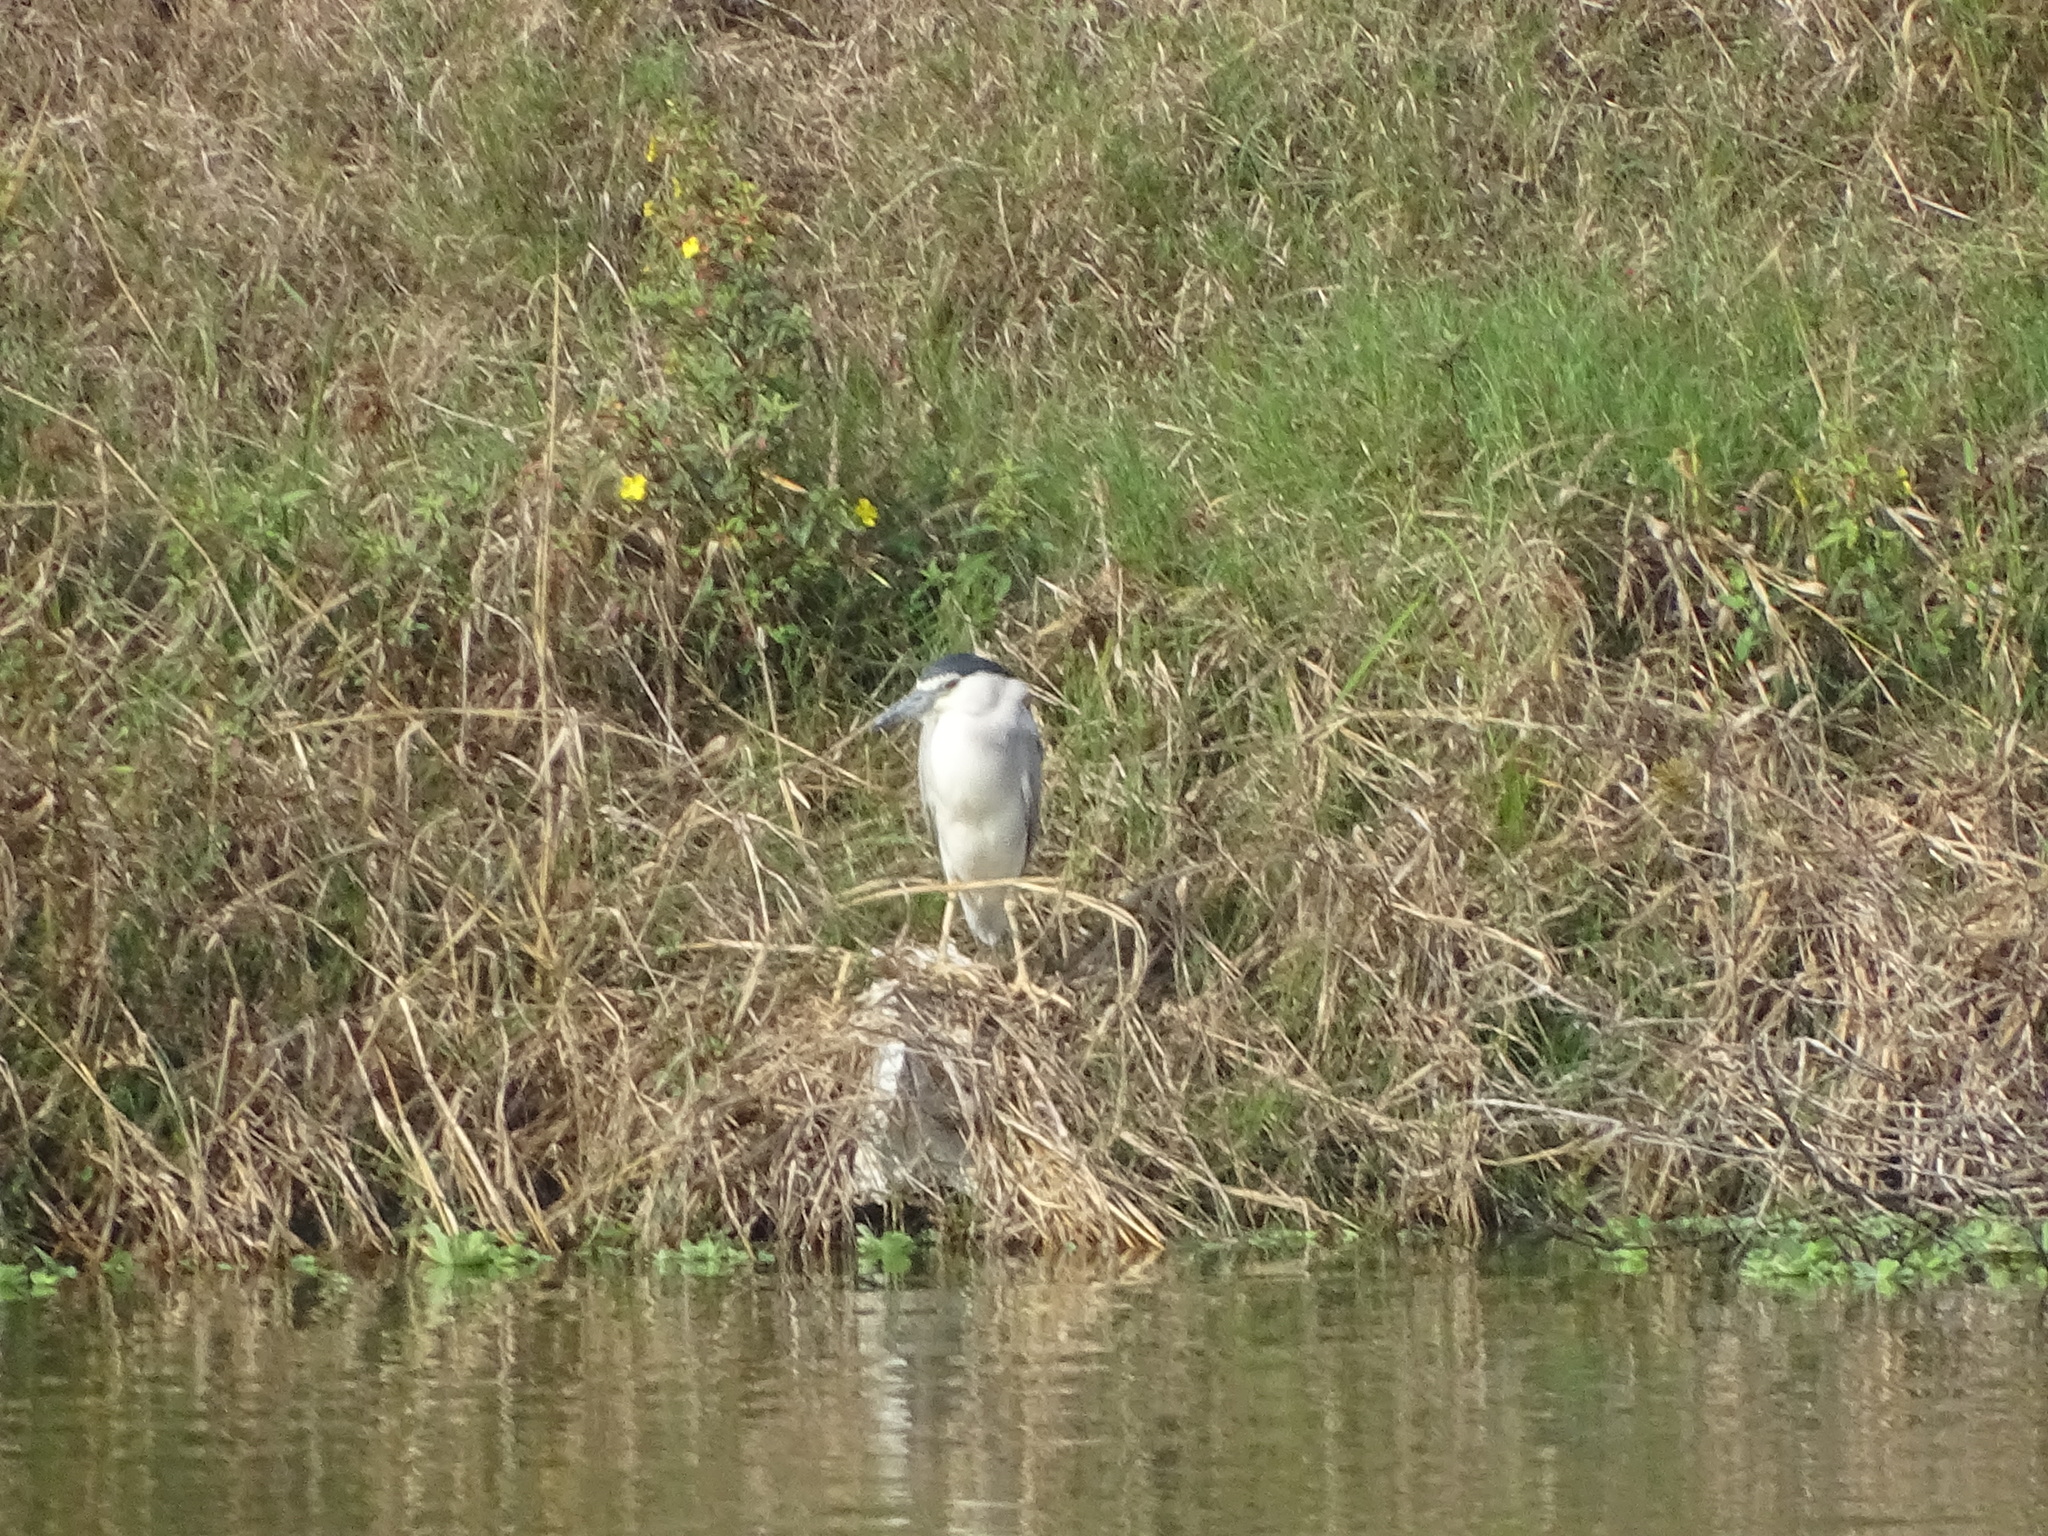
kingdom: Animalia
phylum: Chordata
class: Aves
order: Pelecaniformes
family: Ardeidae
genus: Nycticorax
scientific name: Nycticorax nycticorax
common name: Black-crowned night heron
